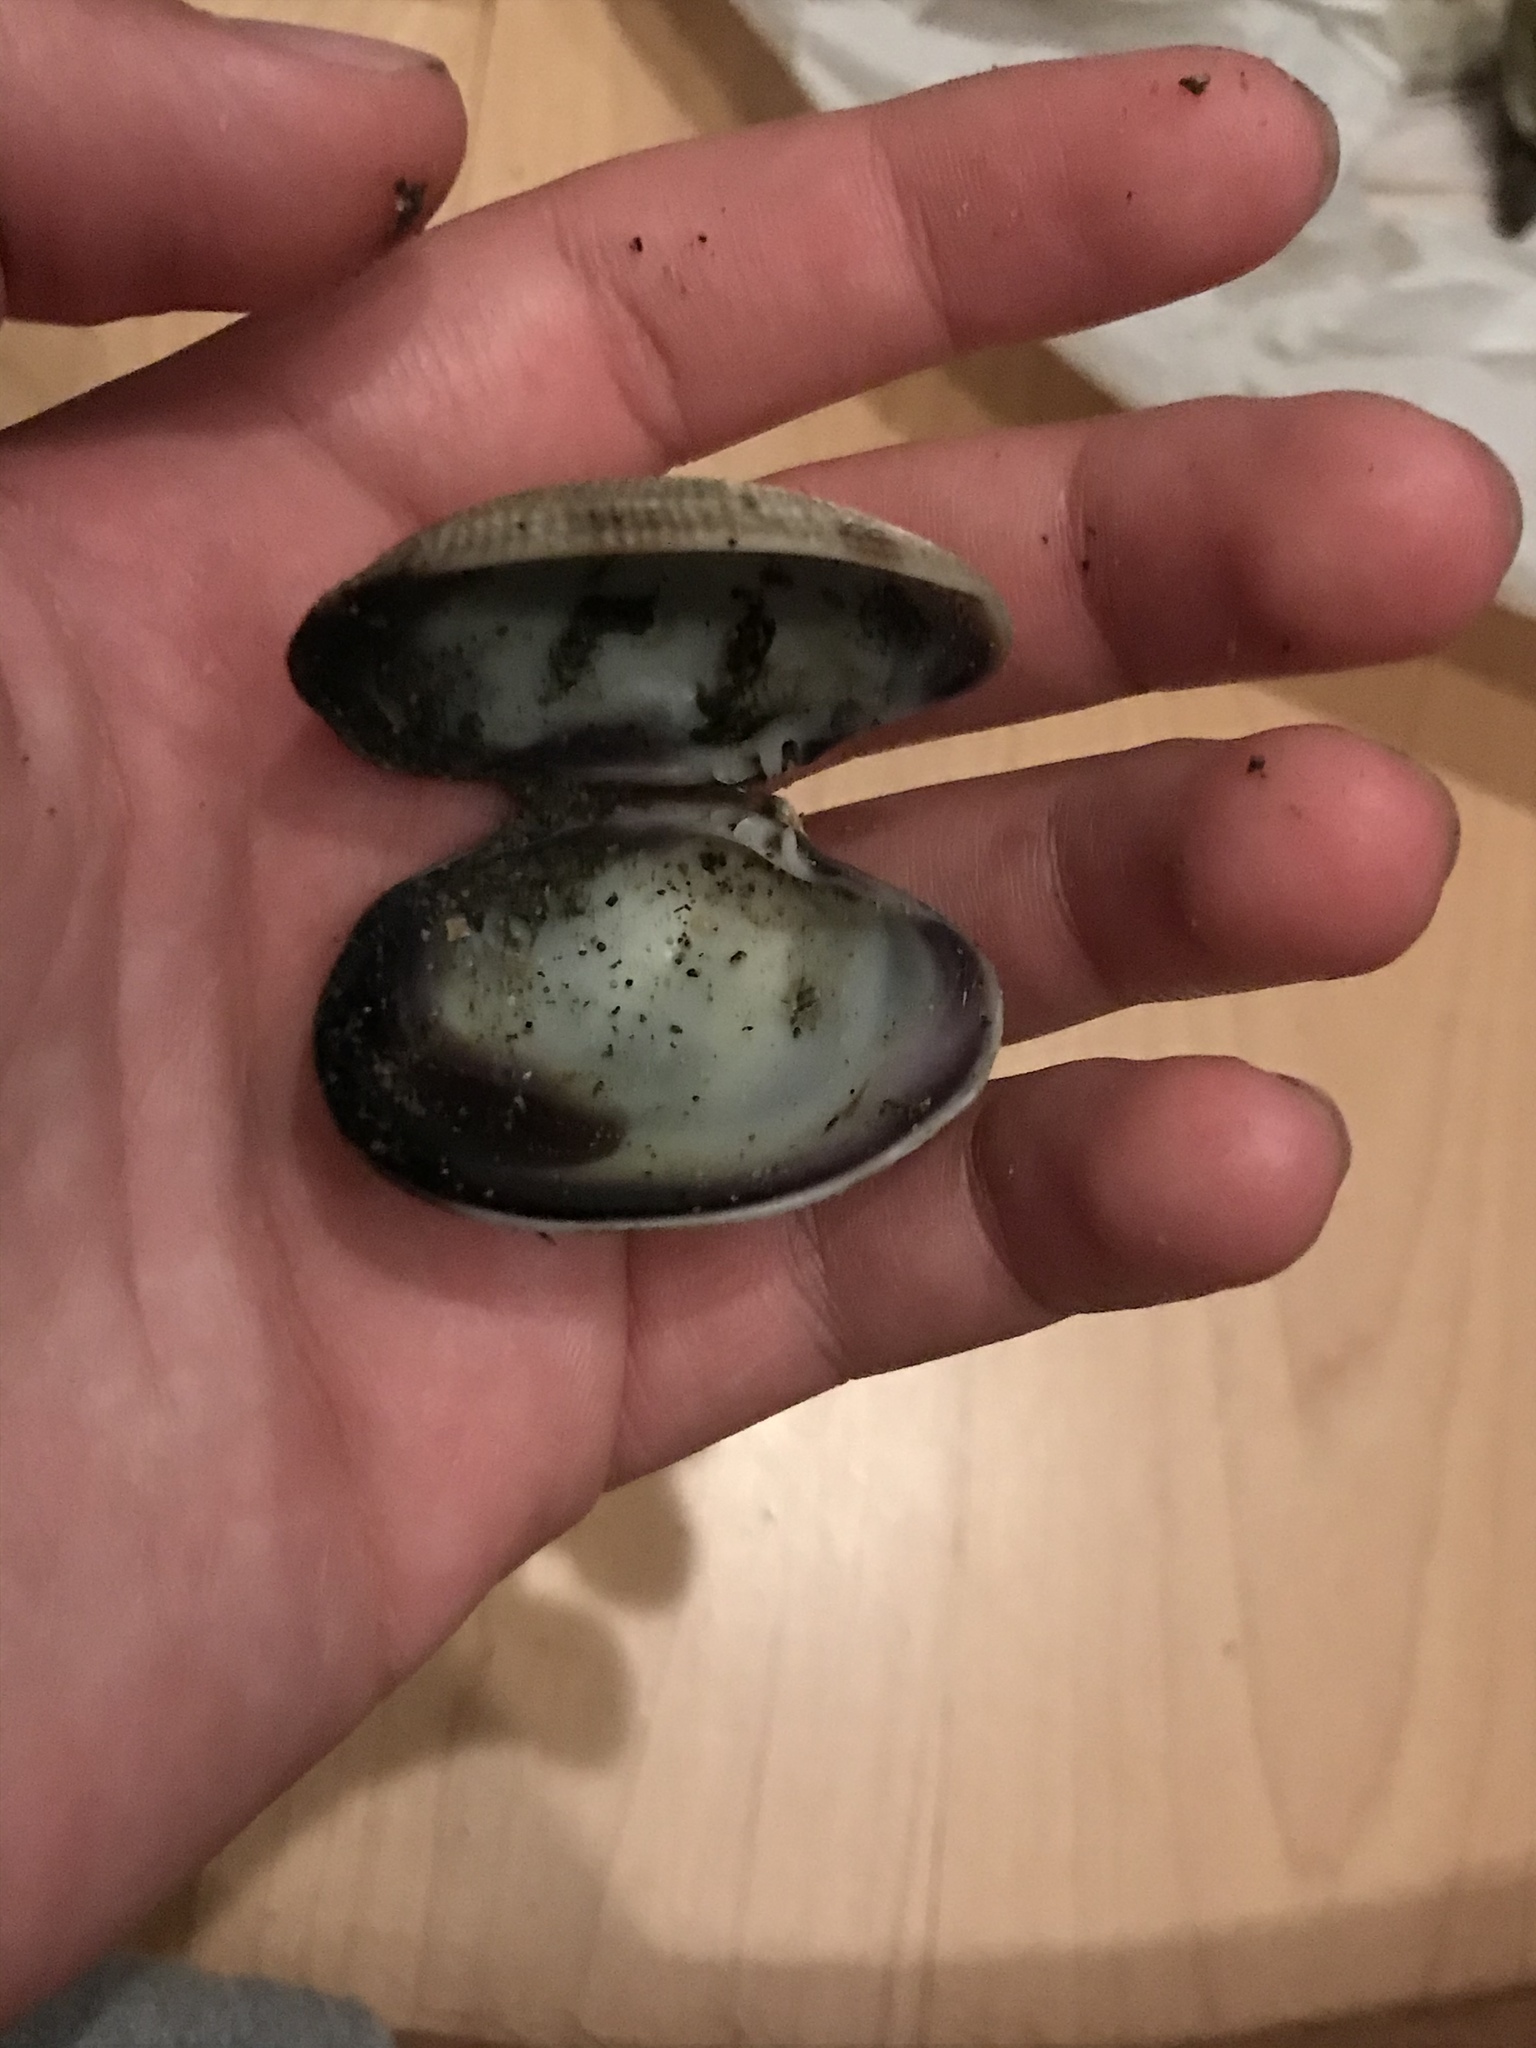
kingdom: Animalia
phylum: Mollusca
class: Bivalvia
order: Venerida
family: Veneridae
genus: Ruditapes
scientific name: Ruditapes philippinarum
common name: Manila clam
